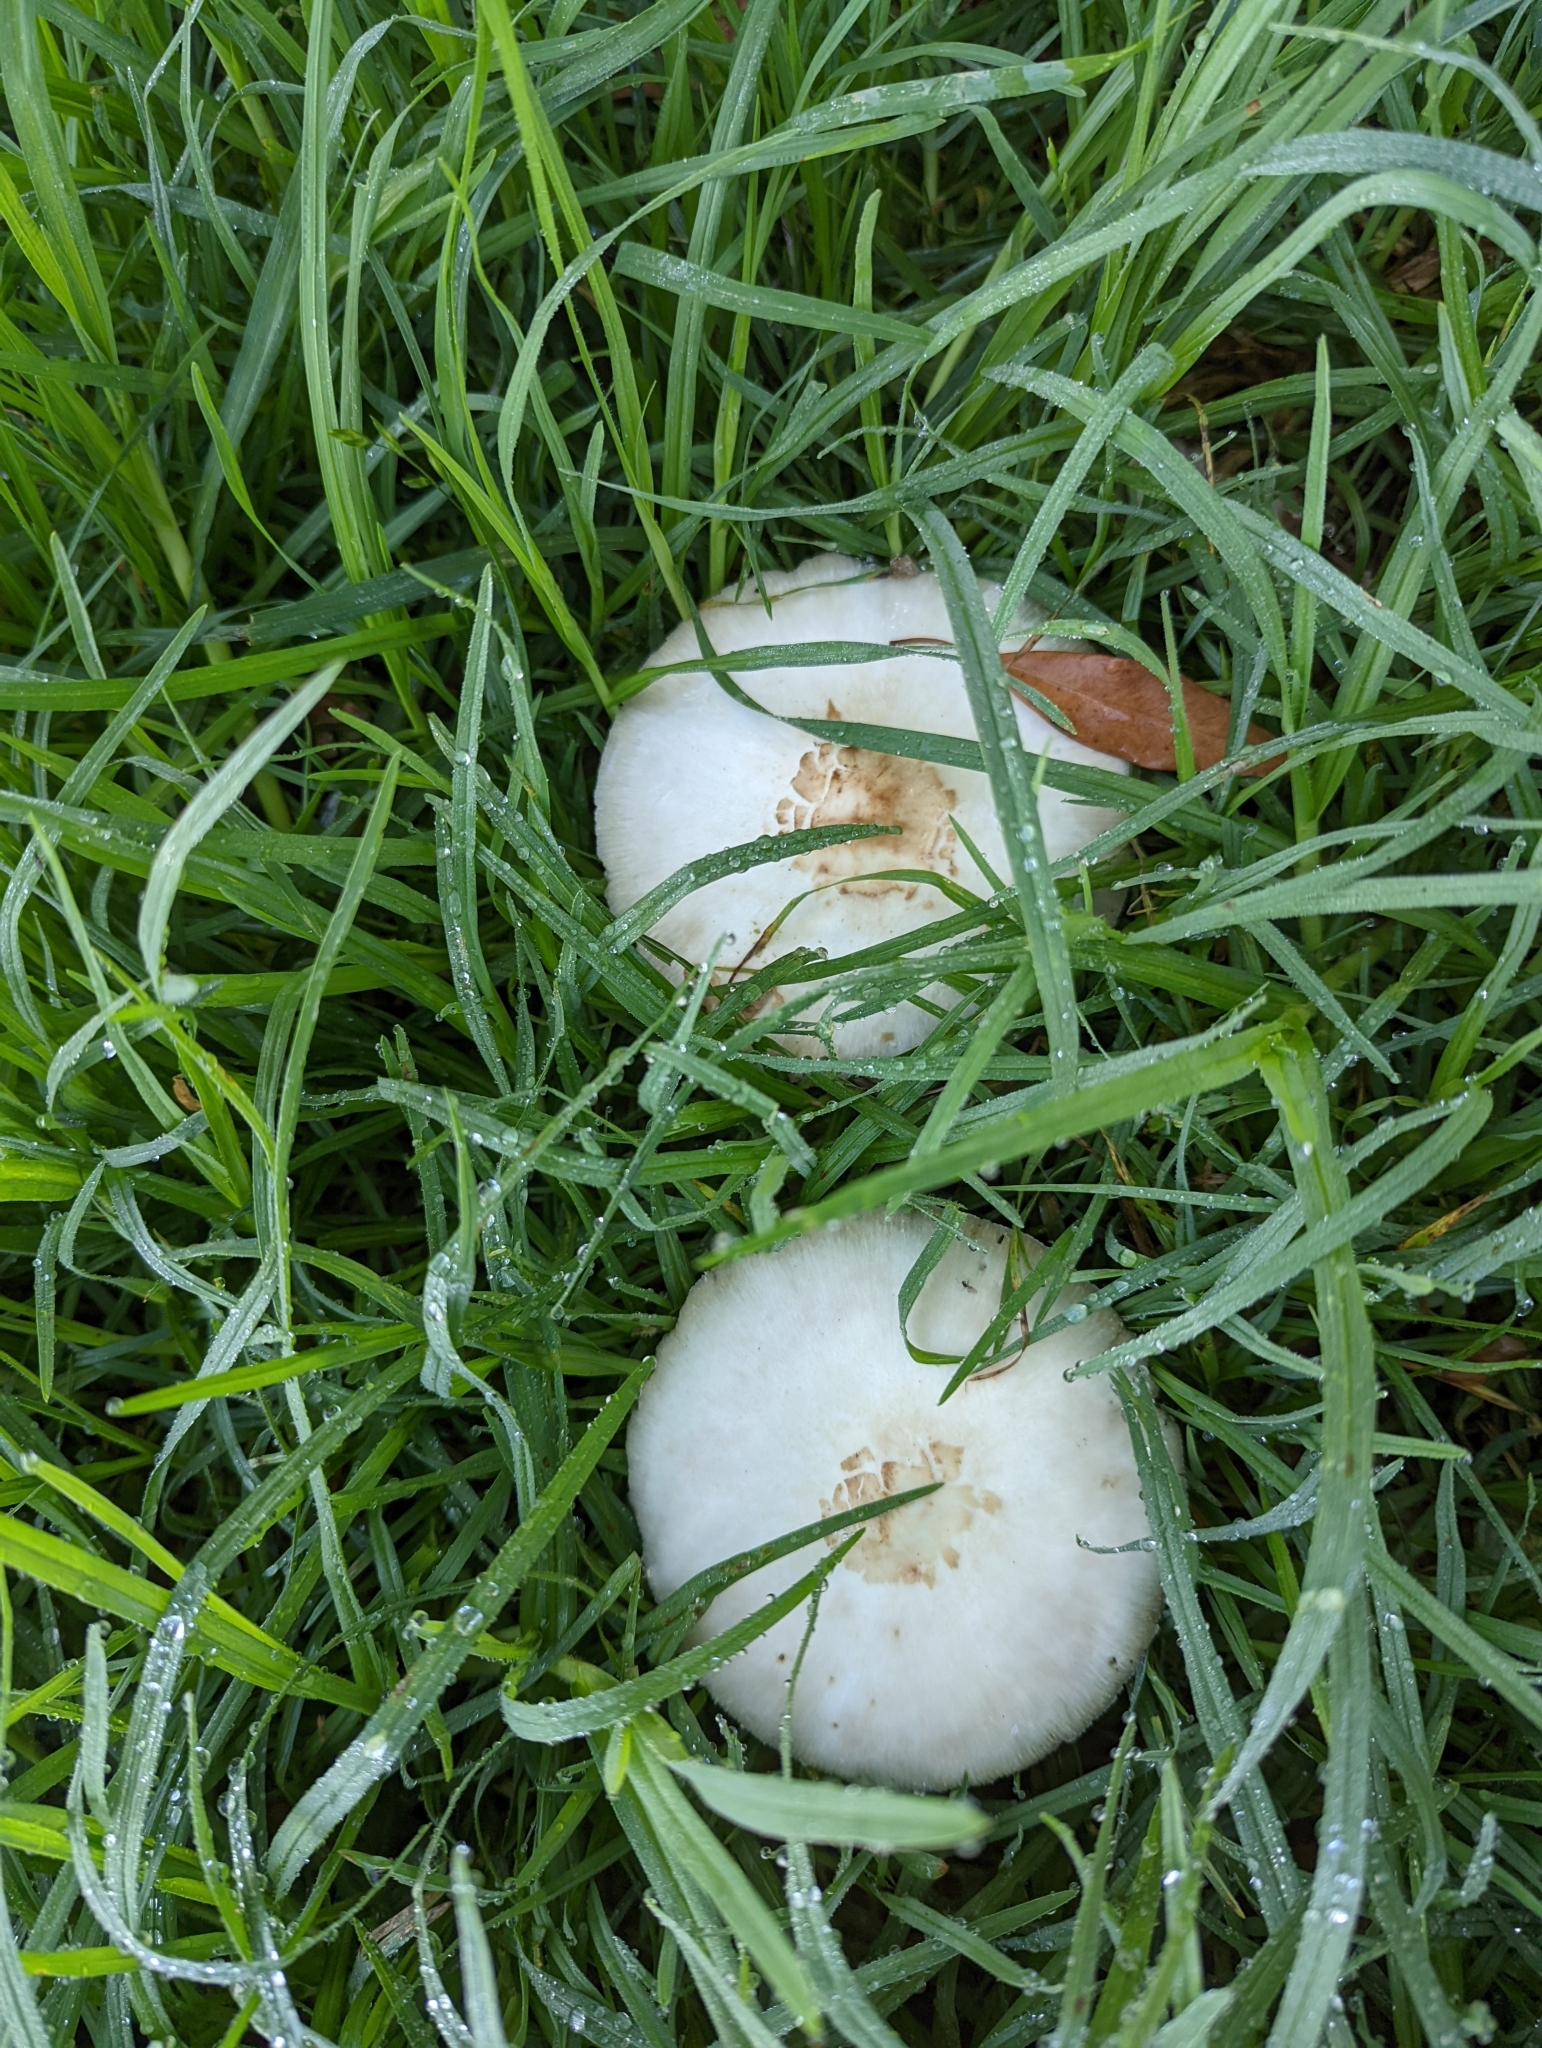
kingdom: Fungi
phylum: Basidiomycota
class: Agaricomycetes
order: Agaricales
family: Agaricaceae
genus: Chlorophyllum
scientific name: Chlorophyllum molybdites
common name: False parasol
